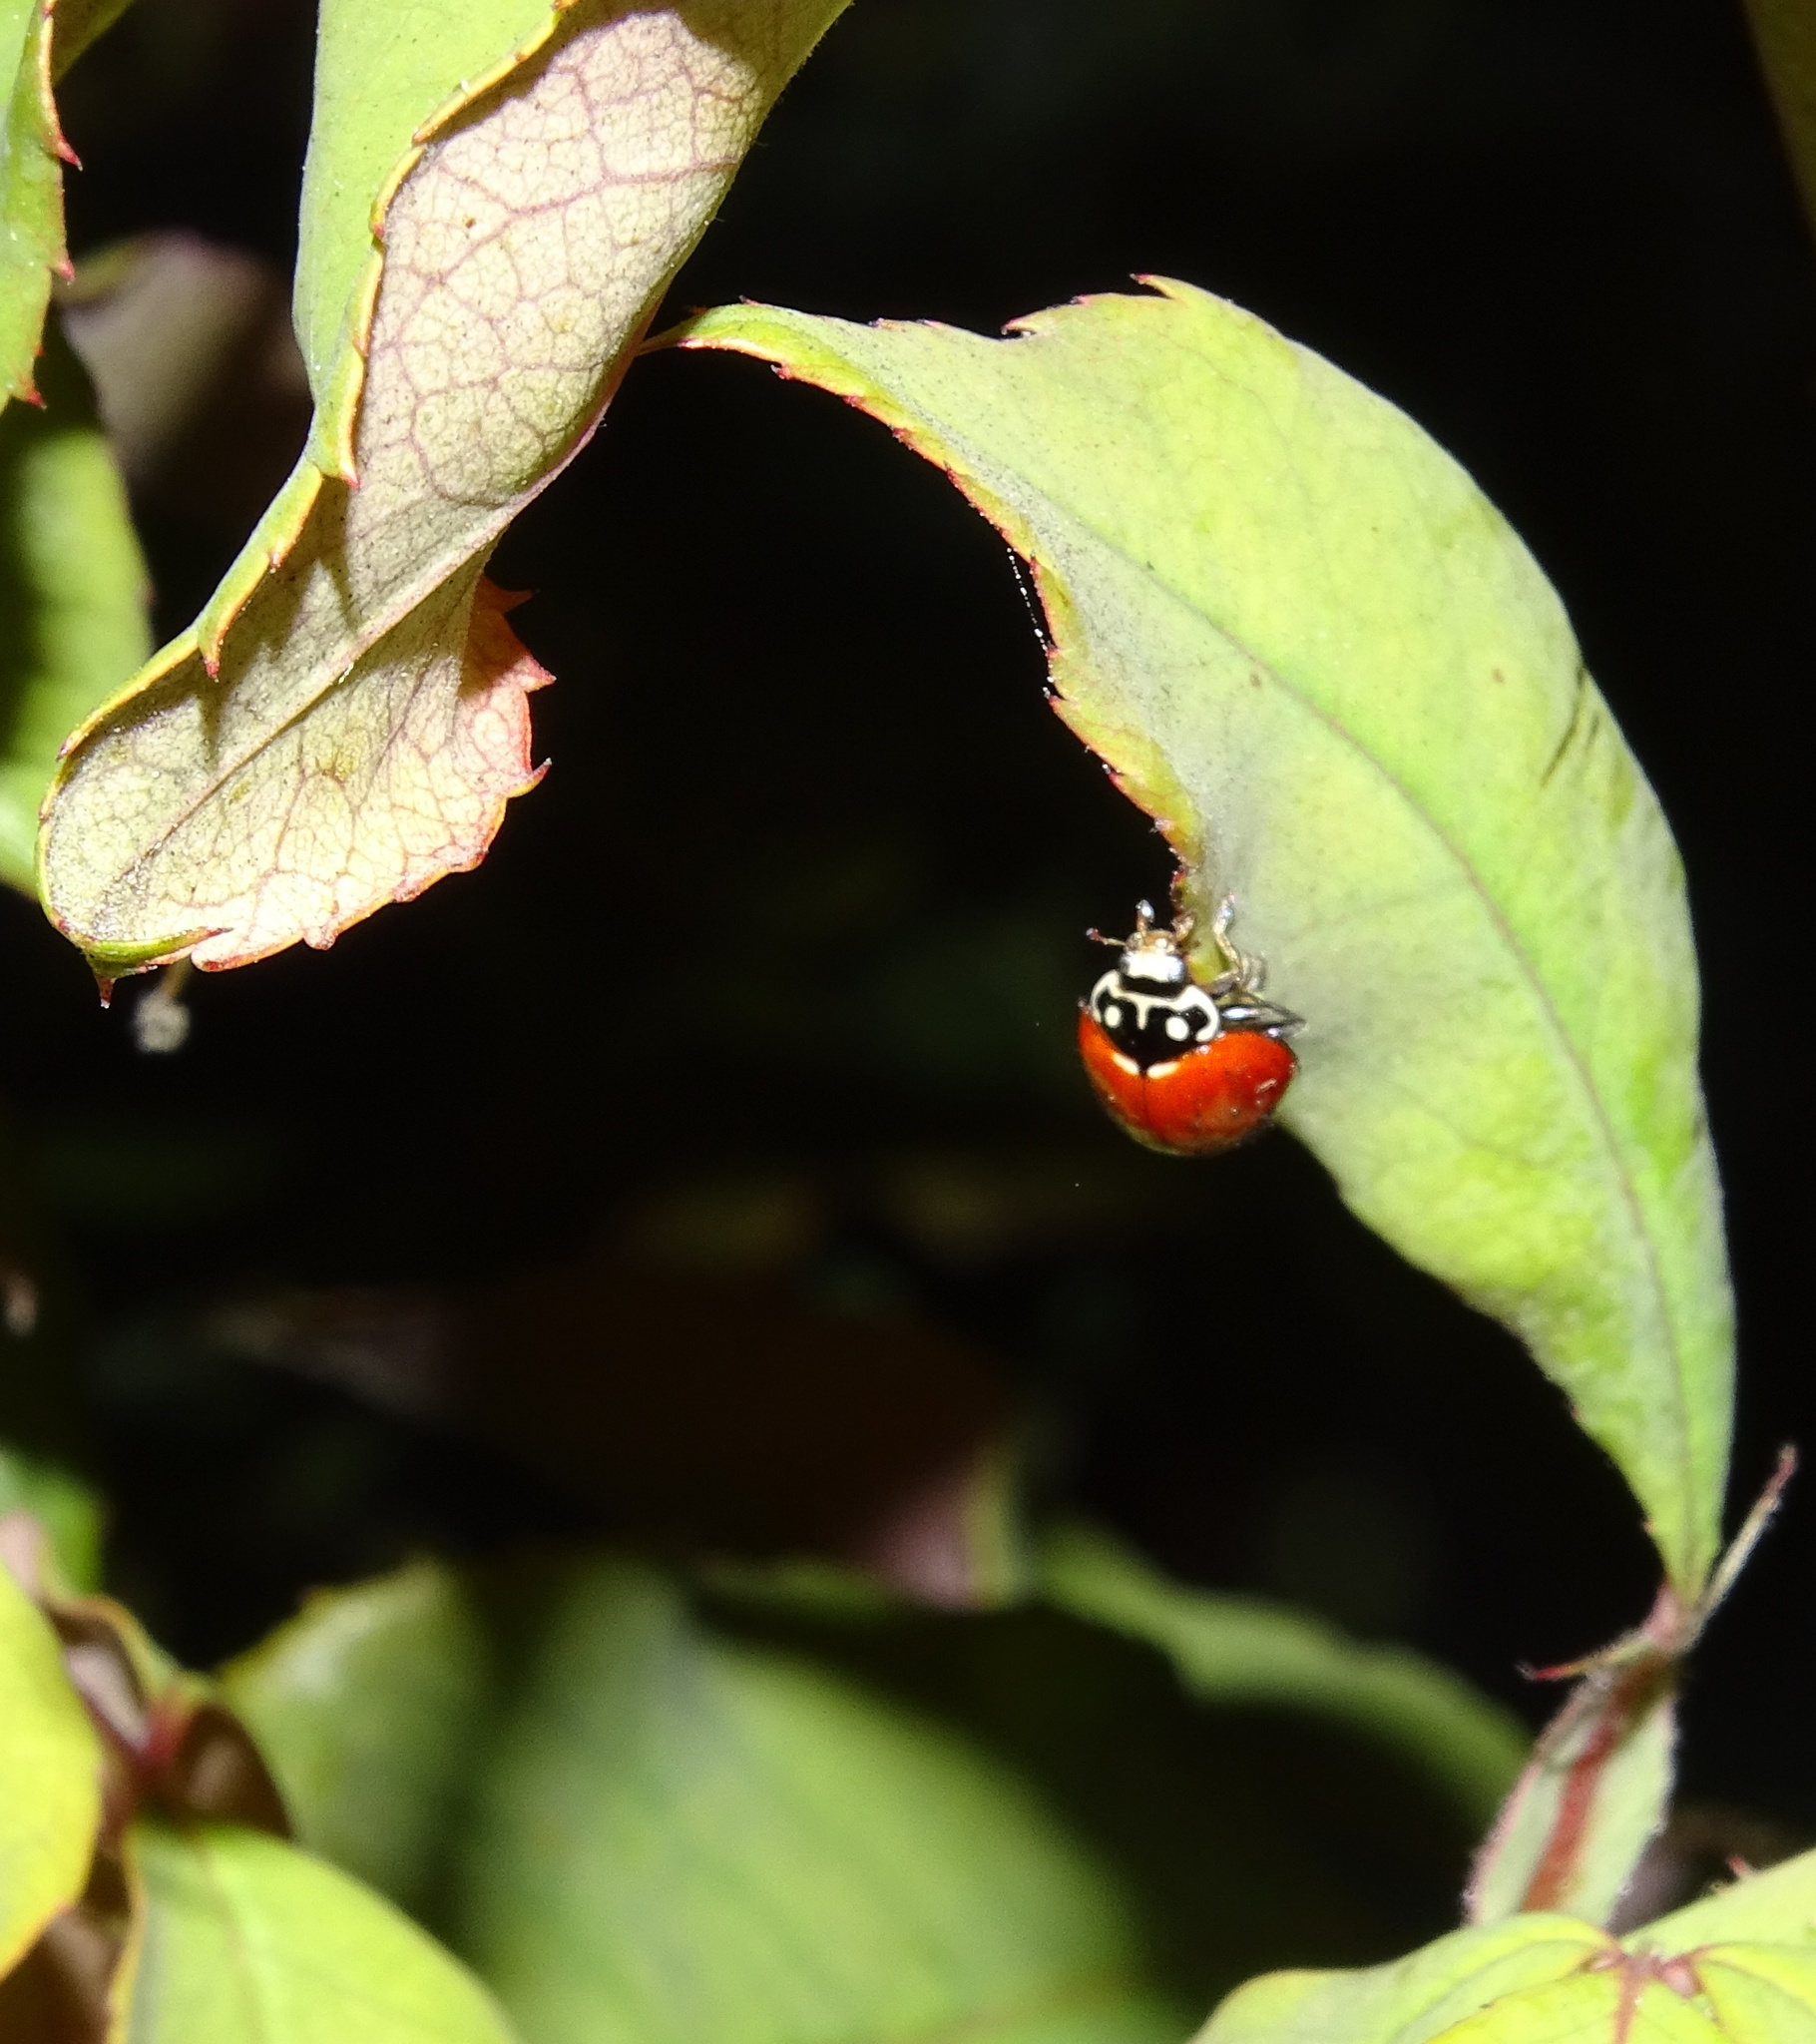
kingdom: Animalia
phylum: Arthropoda
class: Insecta
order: Coleoptera
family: Coccinellidae
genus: Cycloneda
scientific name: Cycloneda sanguinea
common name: Ladybird beetle
